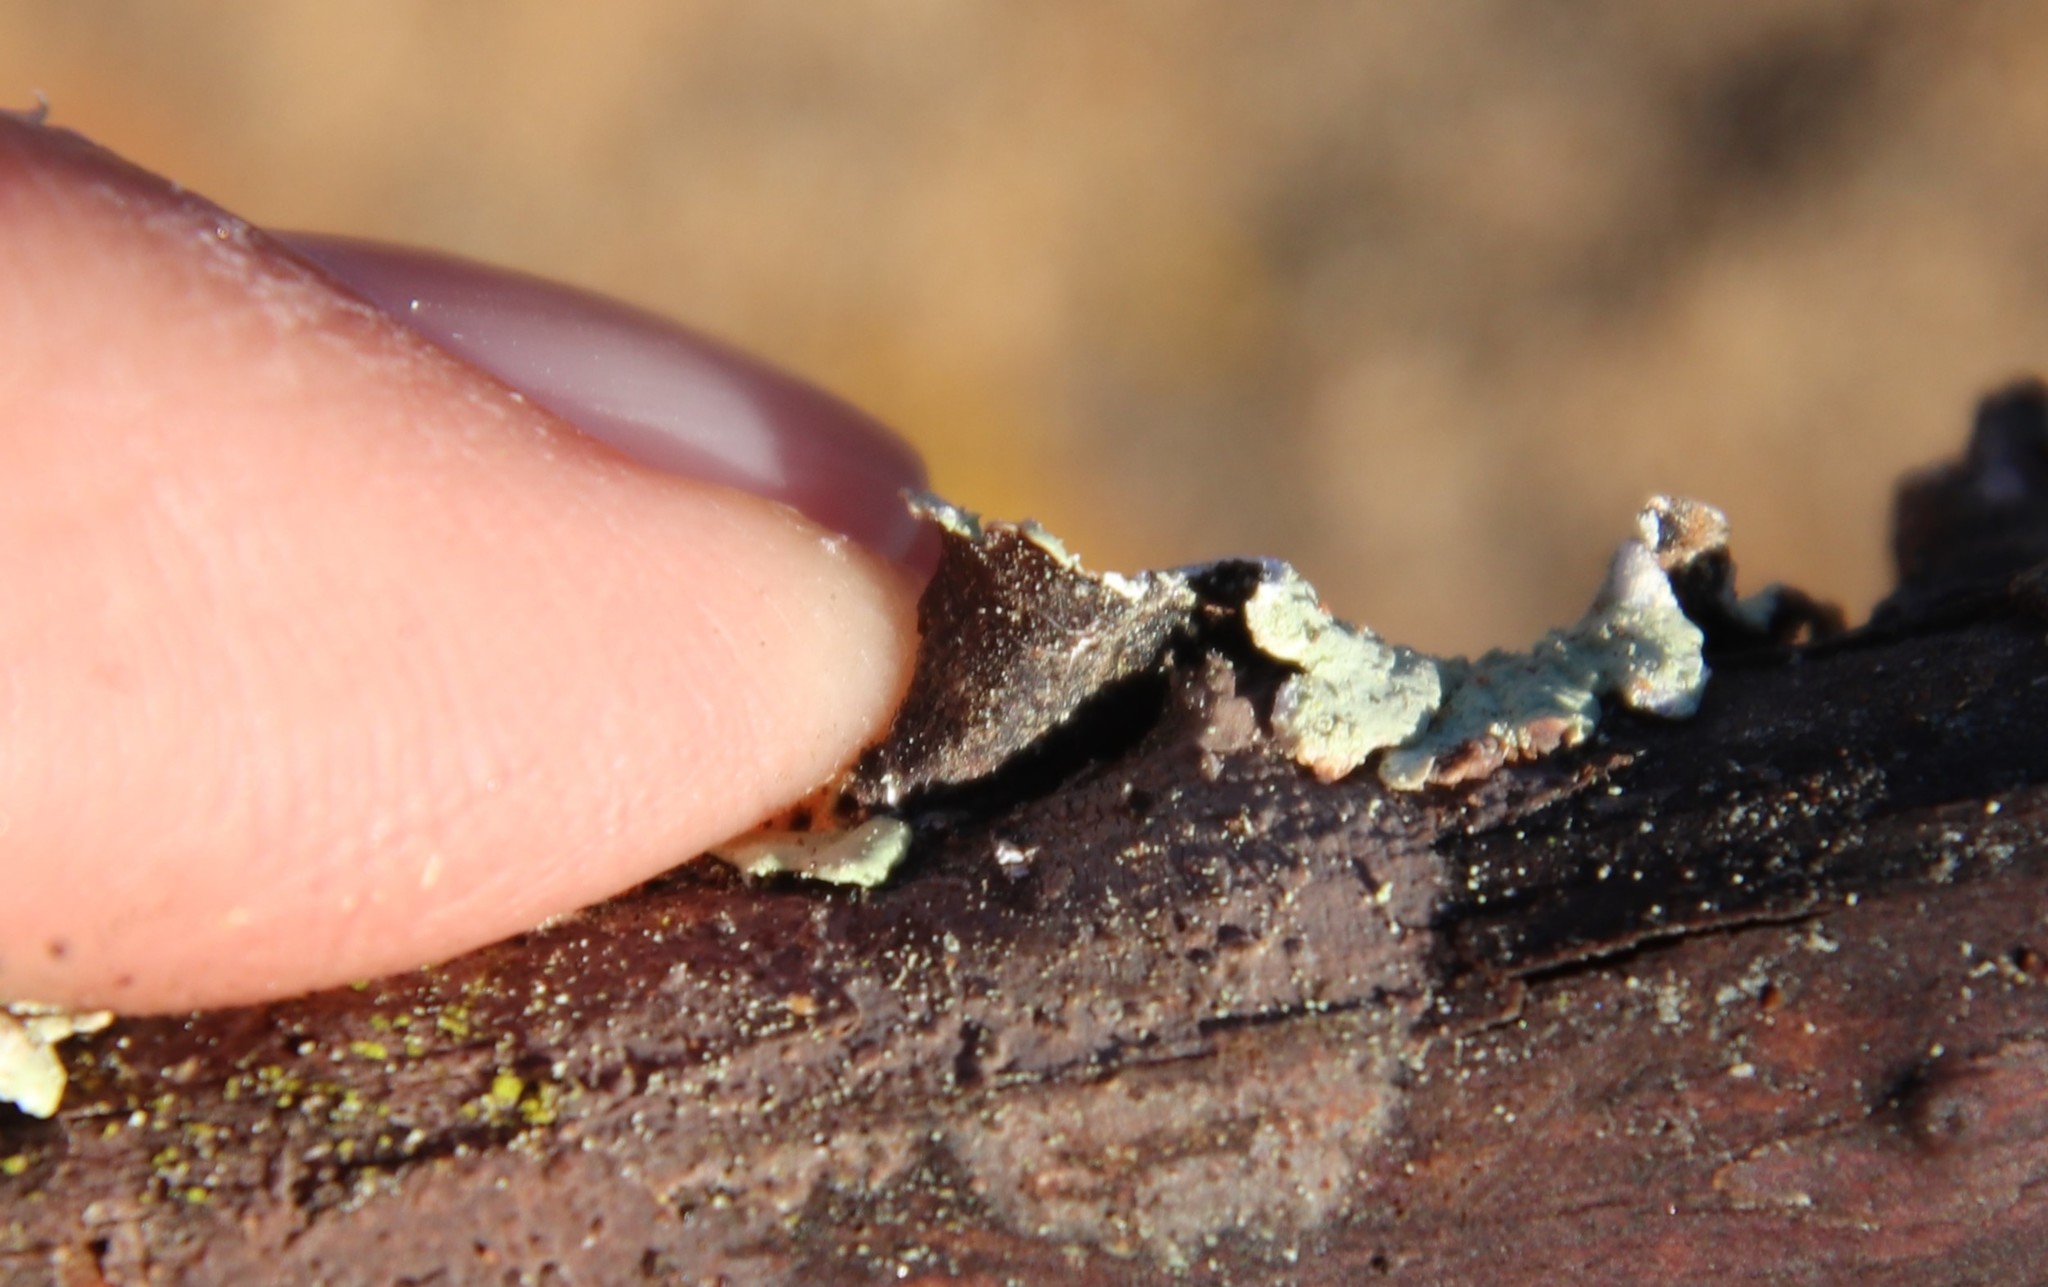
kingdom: Fungi
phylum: Ascomycota
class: Lecanoromycetes
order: Lecanorales
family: Parmeliaceae
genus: Flavoparmelia
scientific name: Flavoparmelia caperata
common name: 40-mile per hour lichen
